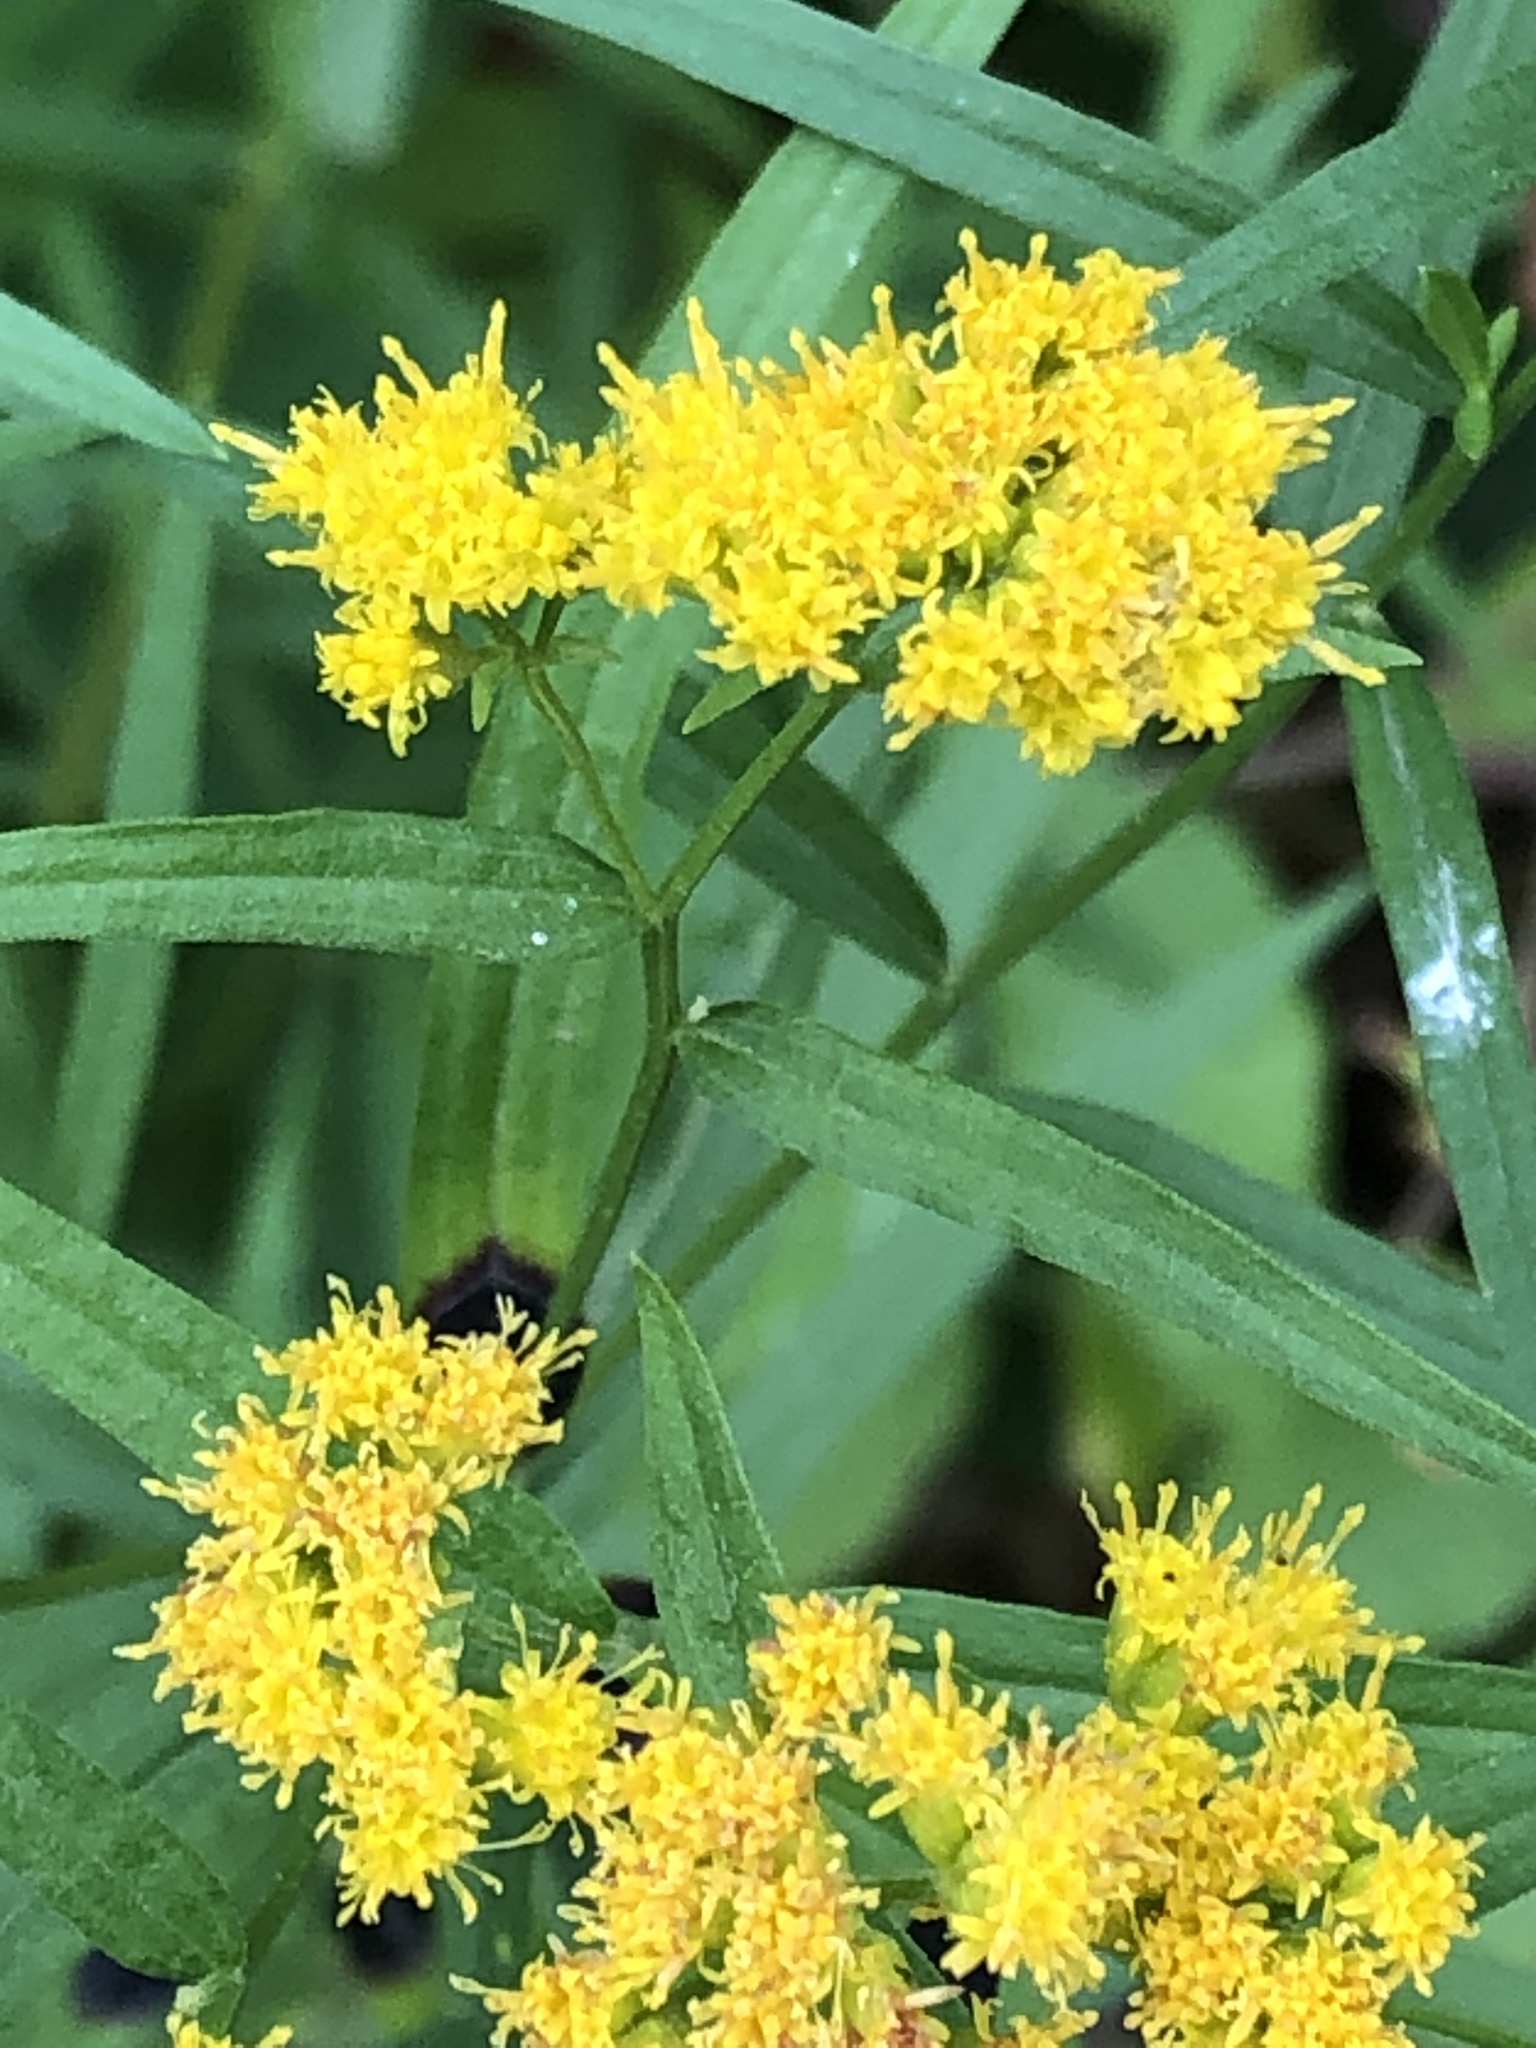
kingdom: Plantae
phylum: Tracheophyta
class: Magnoliopsida
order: Asterales
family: Asteraceae
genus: Euthamia
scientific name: Euthamia graminifolia
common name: Common goldentop
